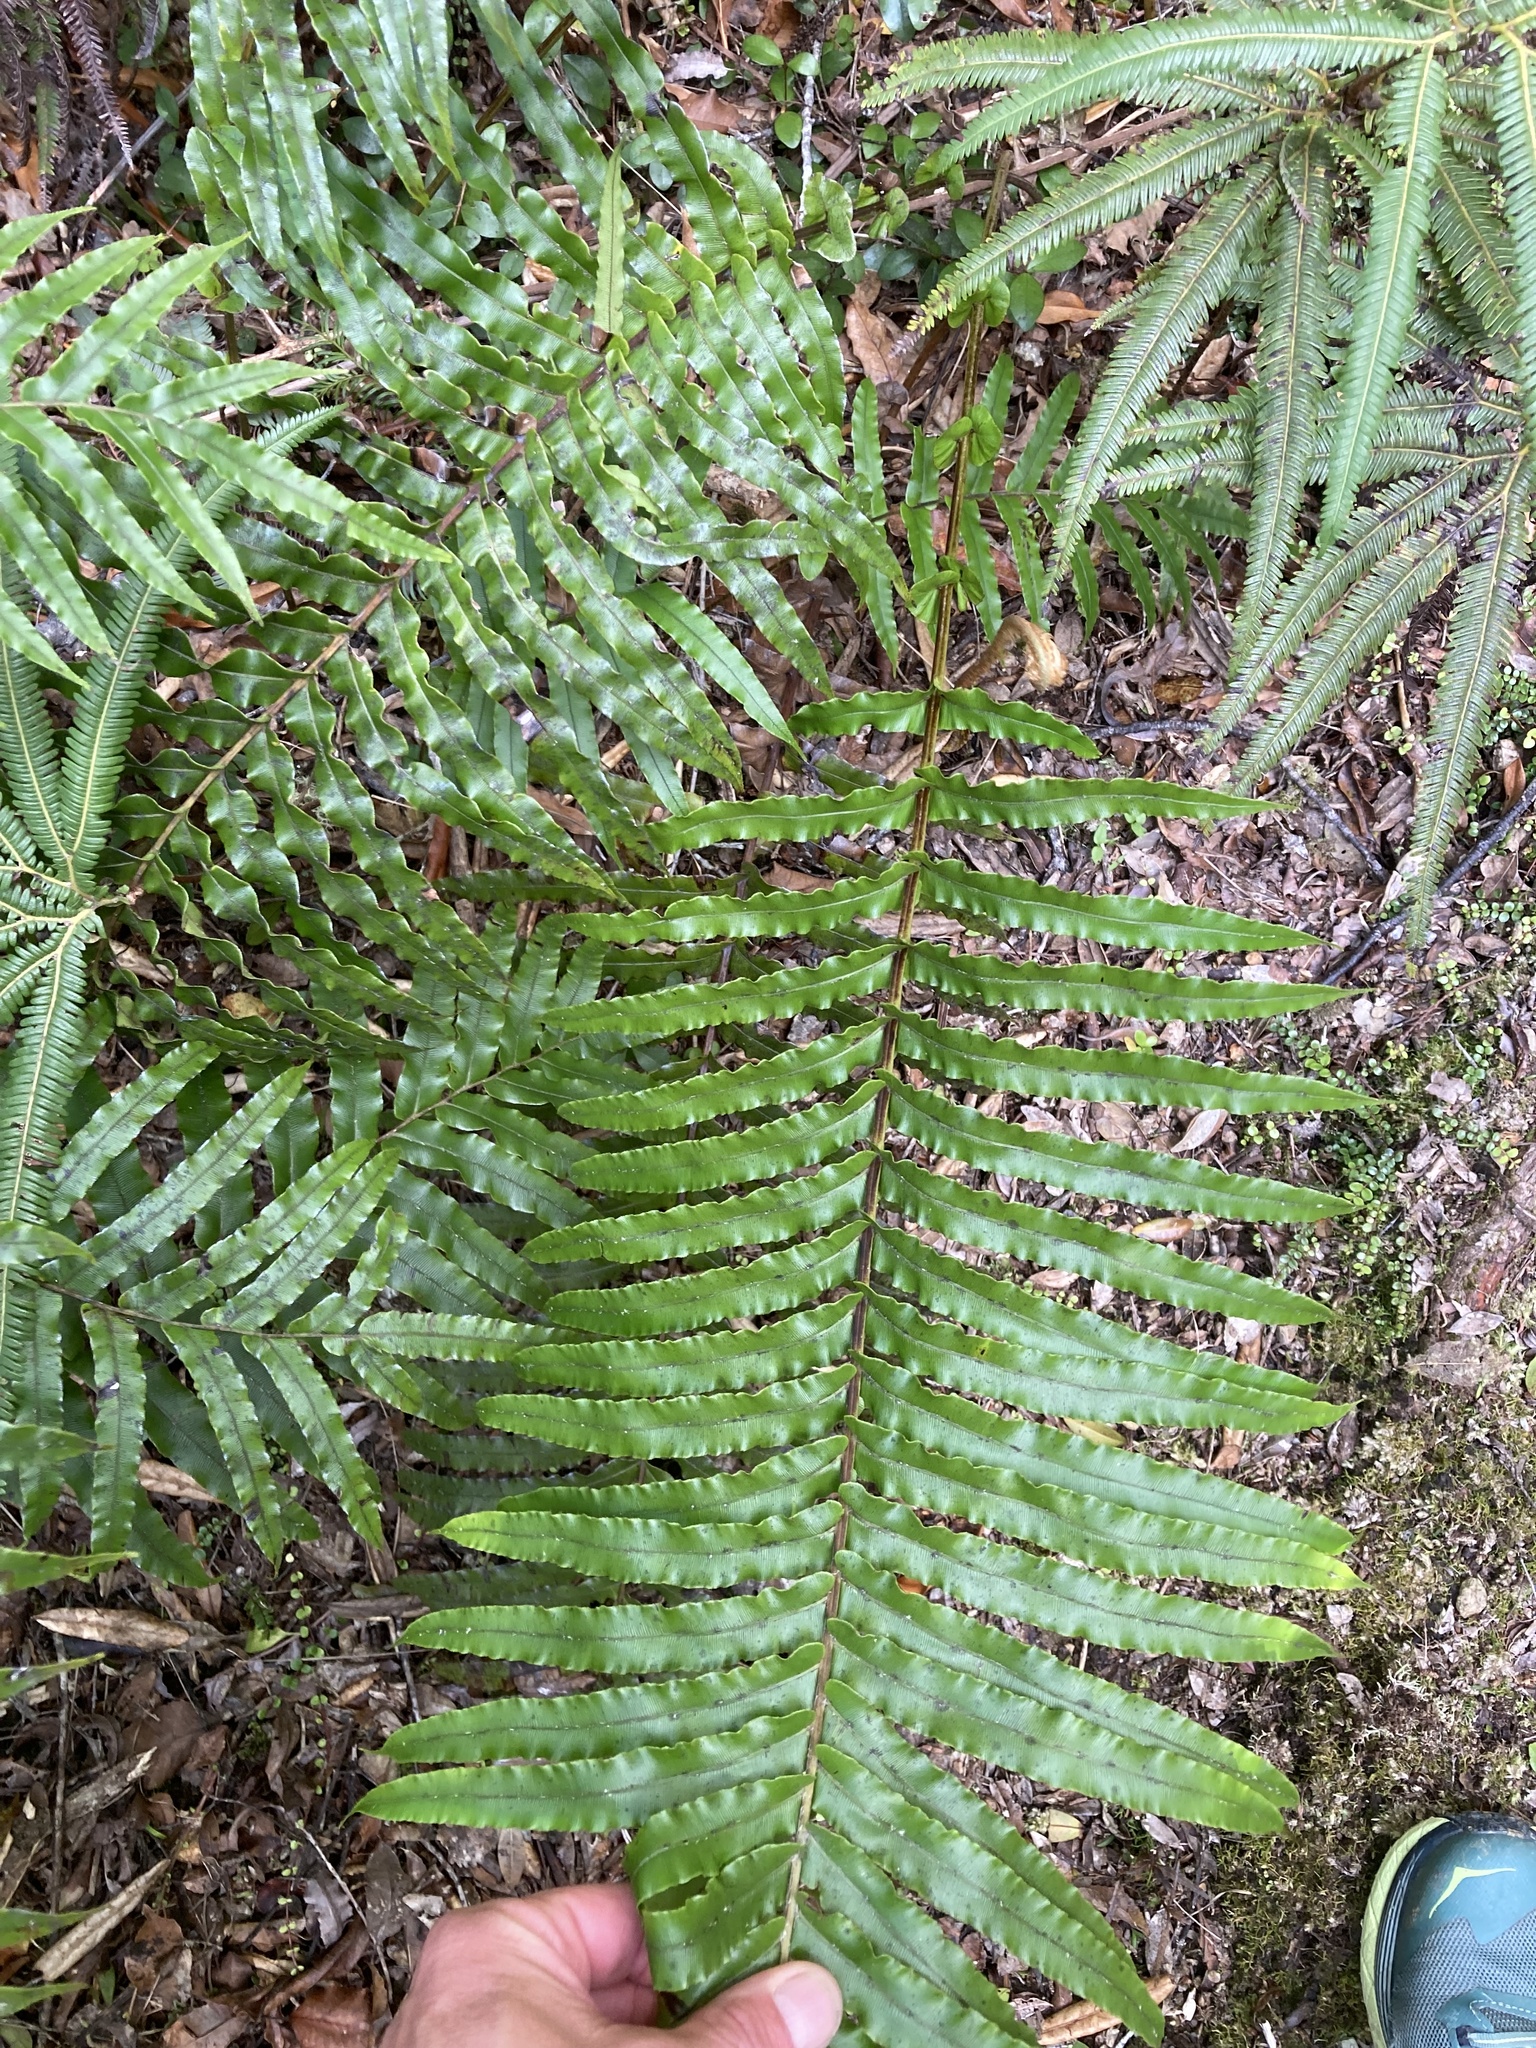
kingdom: Plantae
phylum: Tracheophyta
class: Polypodiopsida
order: Polypodiales
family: Blechnaceae
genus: Parablechnum
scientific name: Parablechnum novae-zelandiae
